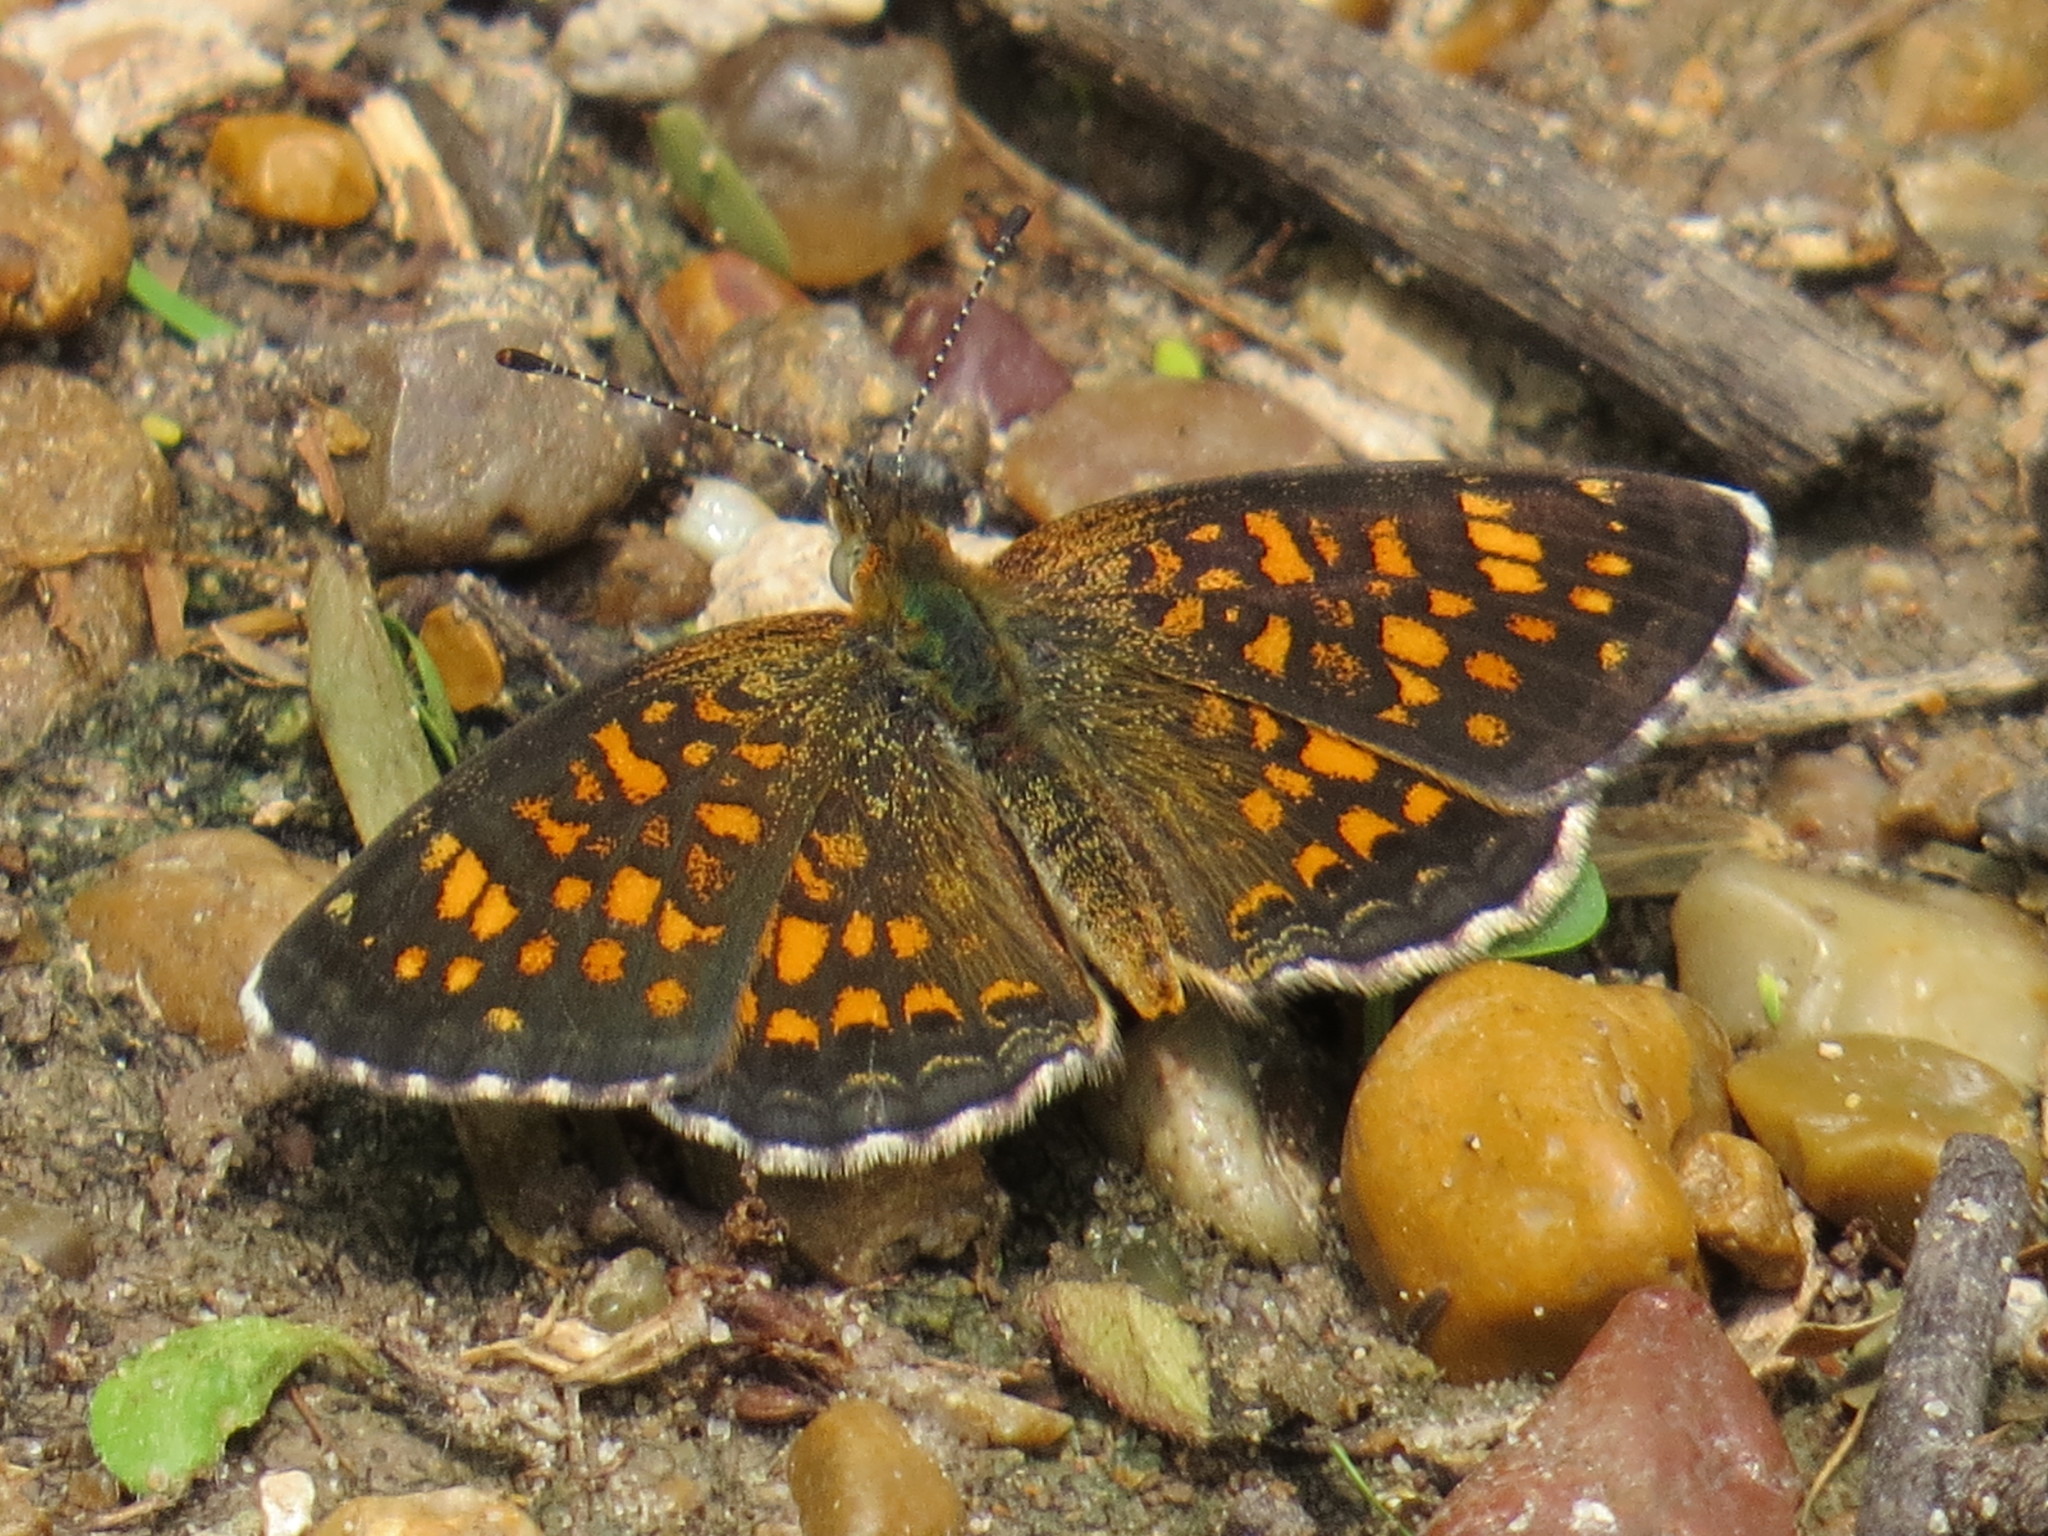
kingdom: Animalia
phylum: Arthropoda
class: Insecta
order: Lepidoptera
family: Nymphalidae
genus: Phyciodes
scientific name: Phyciodes vesta
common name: Vesta crescent
